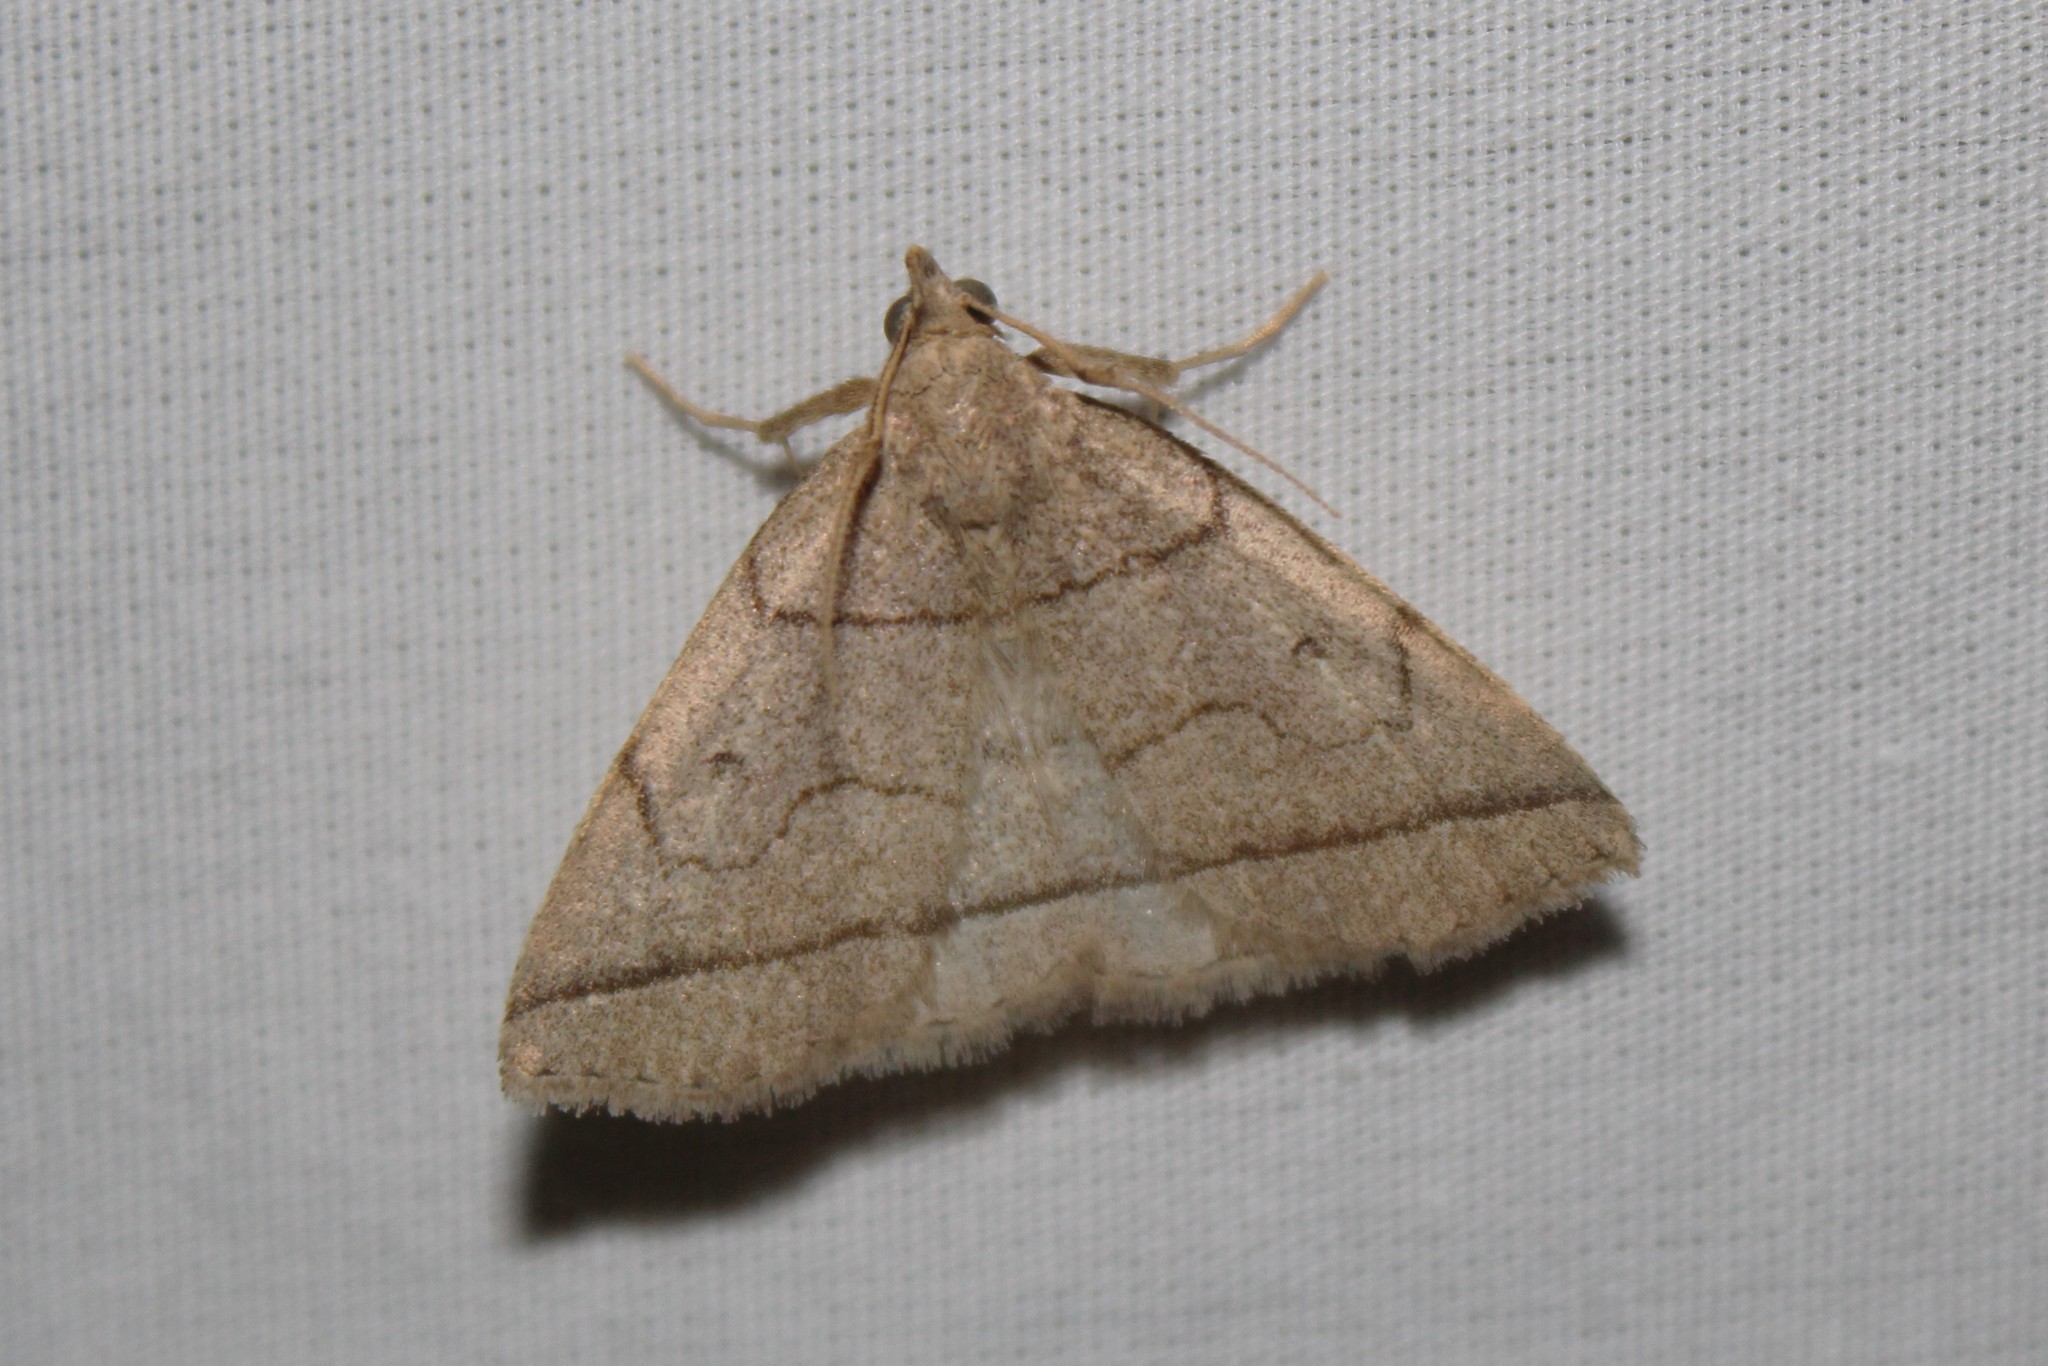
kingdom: Animalia
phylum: Arthropoda
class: Insecta
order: Lepidoptera
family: Erebidae
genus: Zanclognatha
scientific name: Zanclognatha cruralis
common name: Early fan-foot
